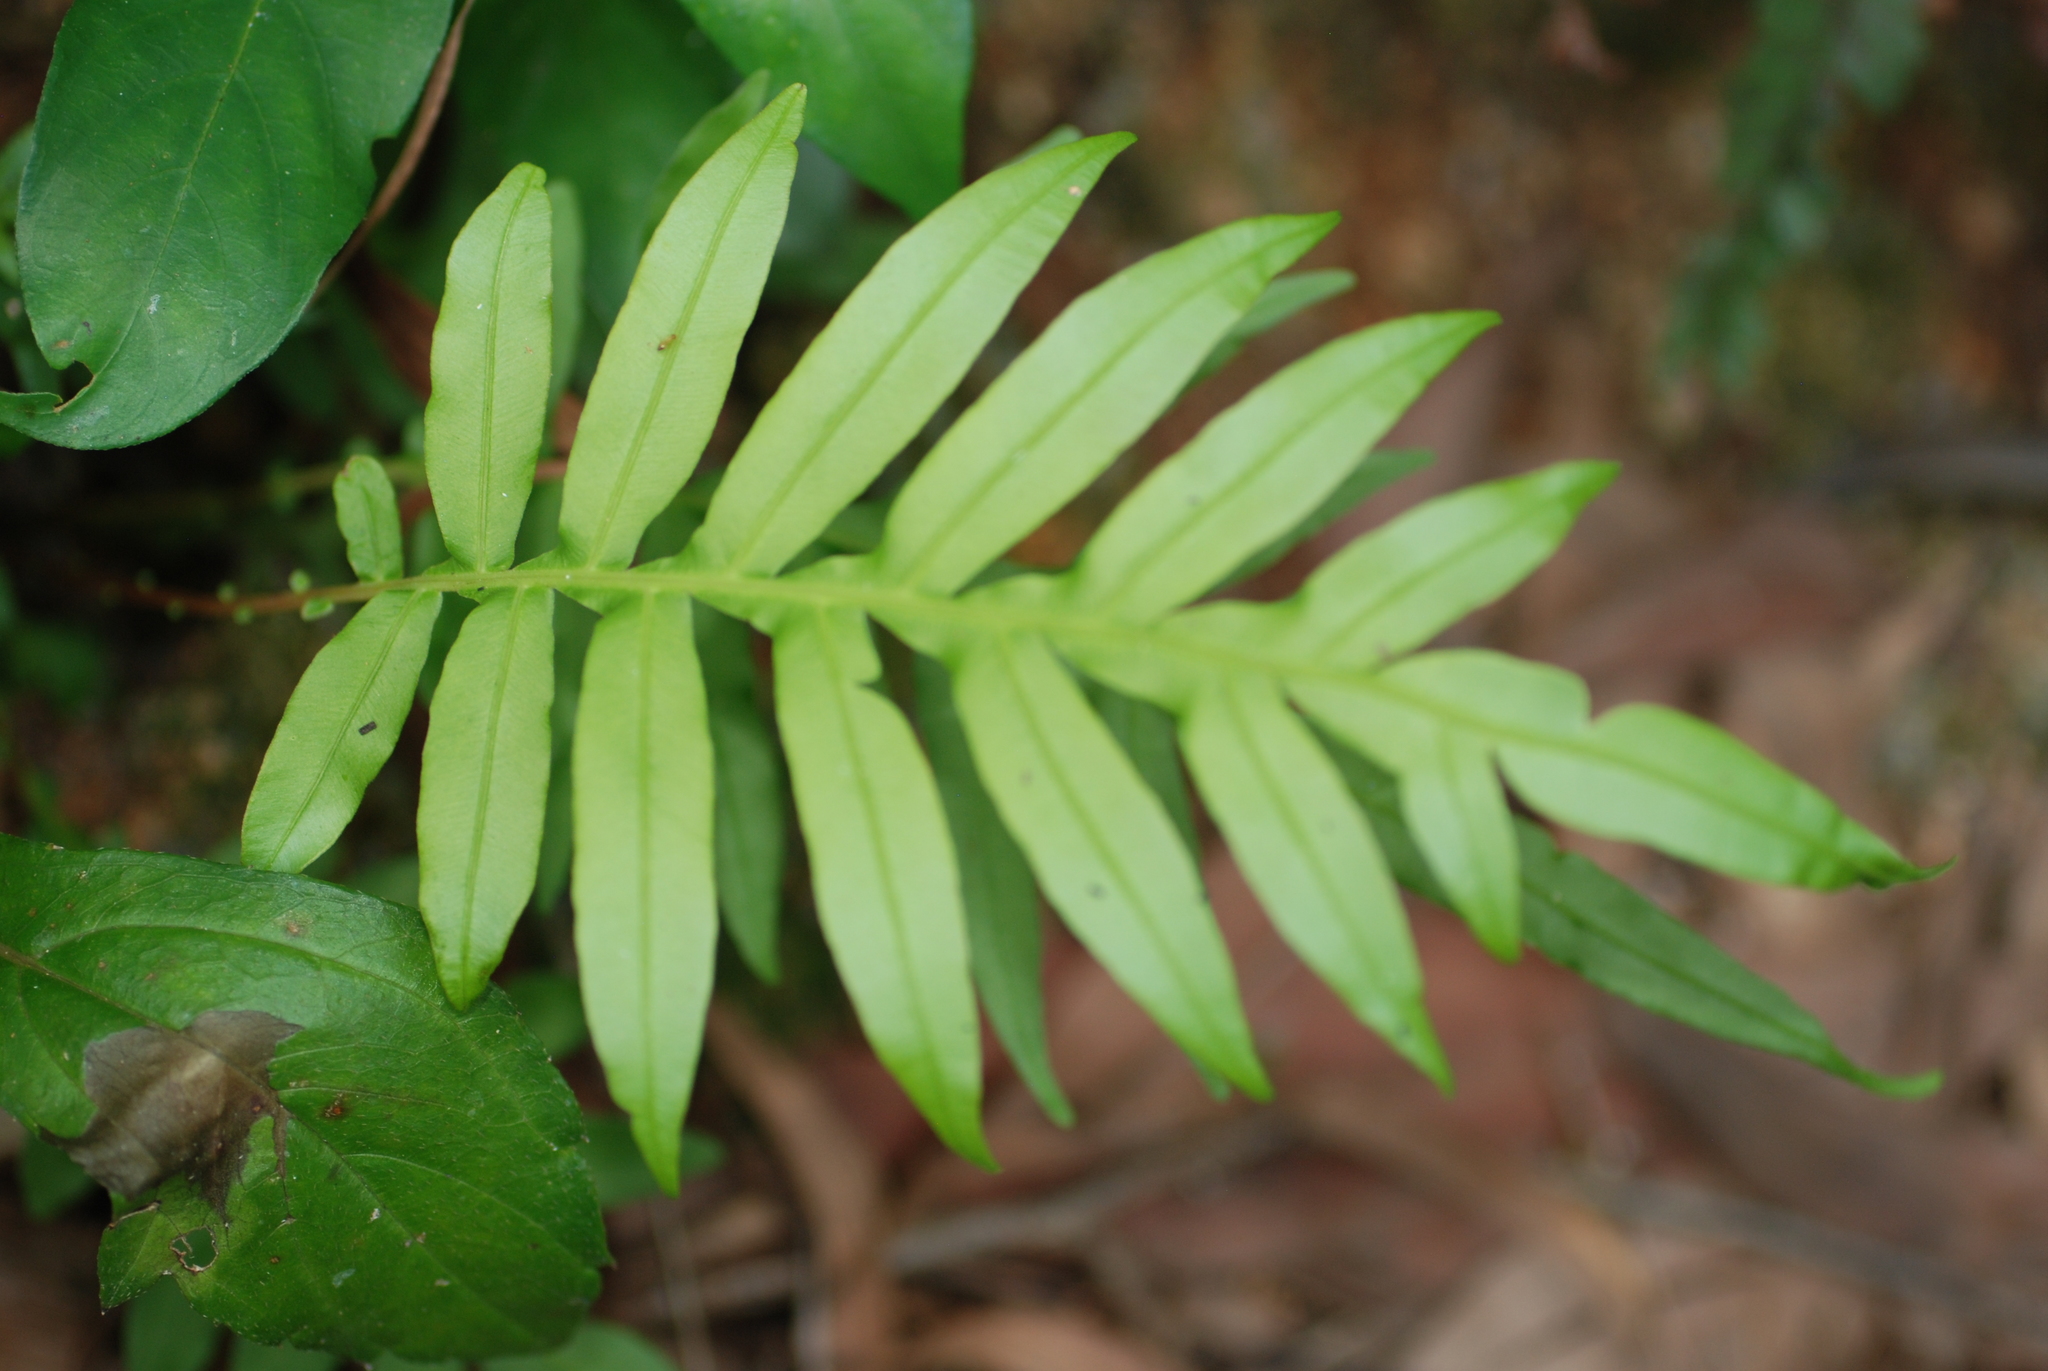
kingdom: Plantae
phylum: Tracheophyta
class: Polypodiopsida
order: Polypodiales
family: Blechnaceae
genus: Blechnopsis
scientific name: Blechnopsis orientalis
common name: Oriental blechnum
